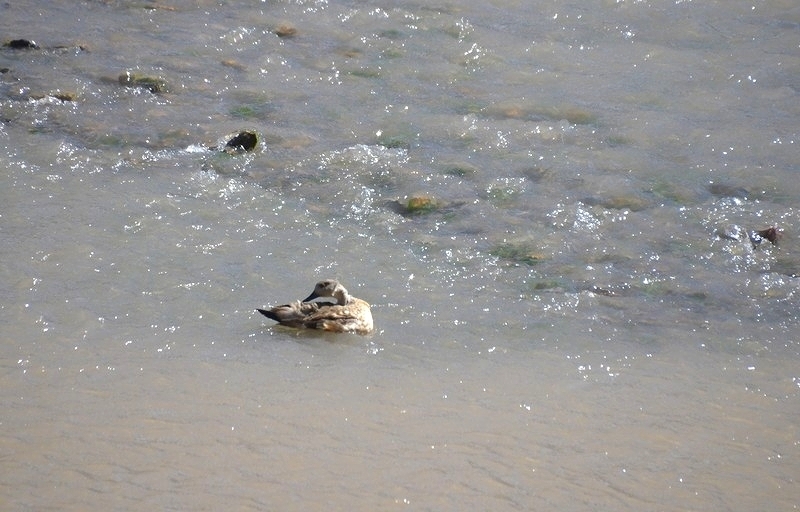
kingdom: Animalia
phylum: Chordata
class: Aves
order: Anseriformes
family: Anatidae
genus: Lophonetta
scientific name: Lophonetta specularioides
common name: Crested duck
